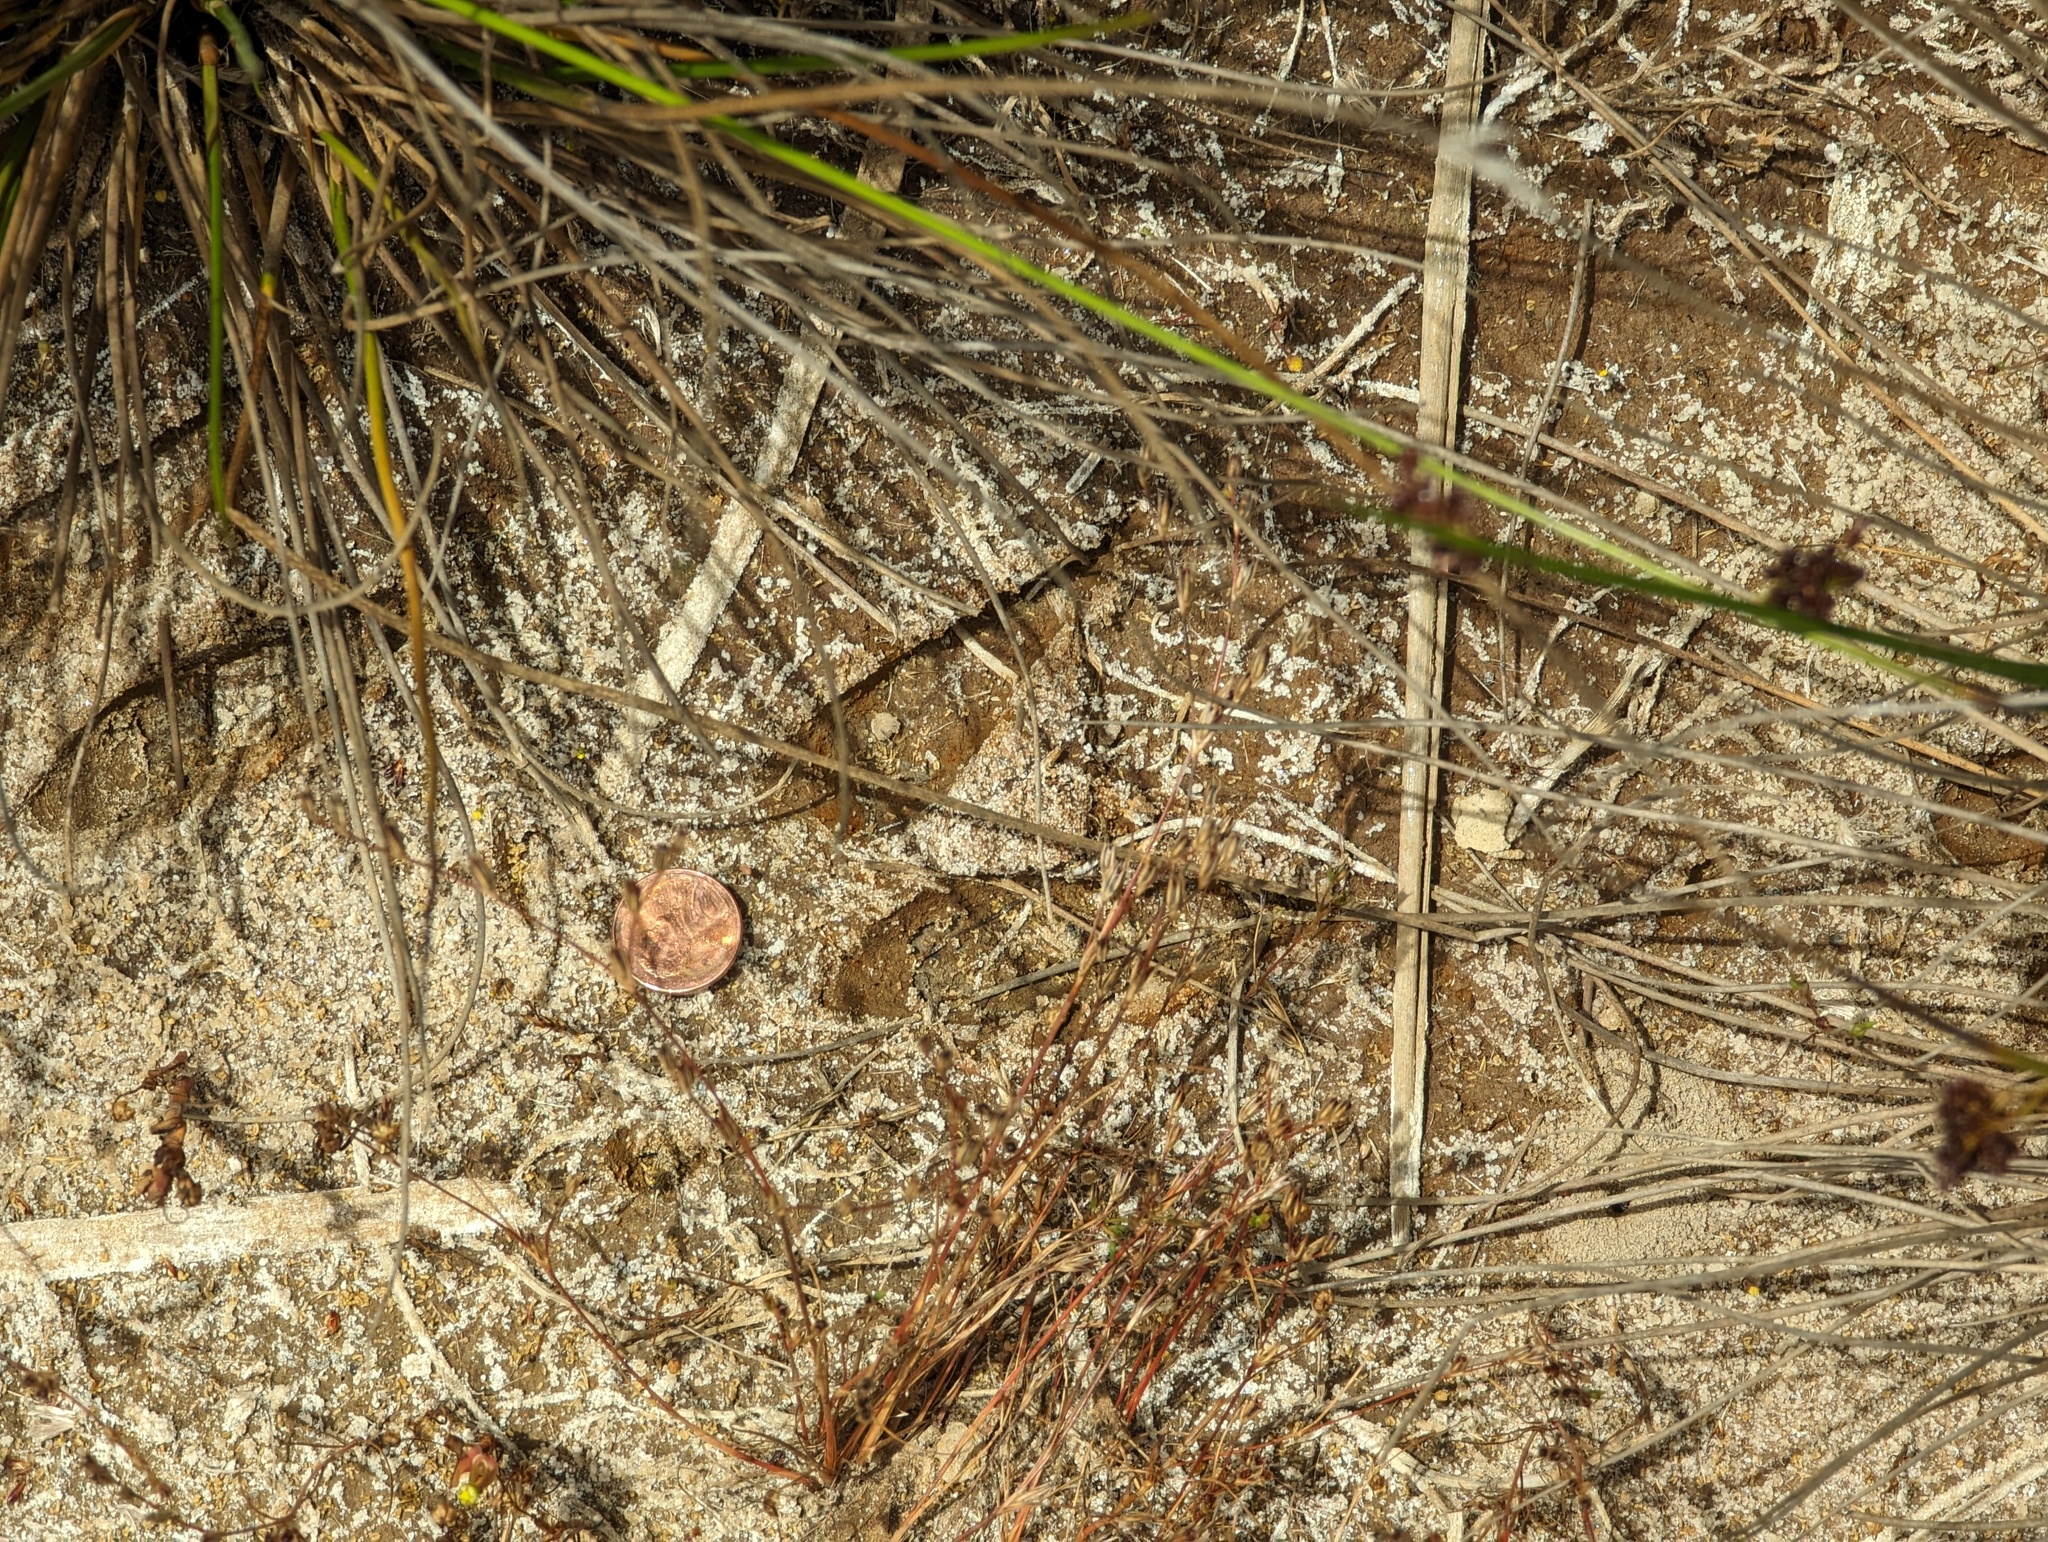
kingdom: Animalia
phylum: Chordata
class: Mammalia
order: Artiodactyla
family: Cervidae
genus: Odocoileus
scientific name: Odocoileus hemionus
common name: Mule deer
